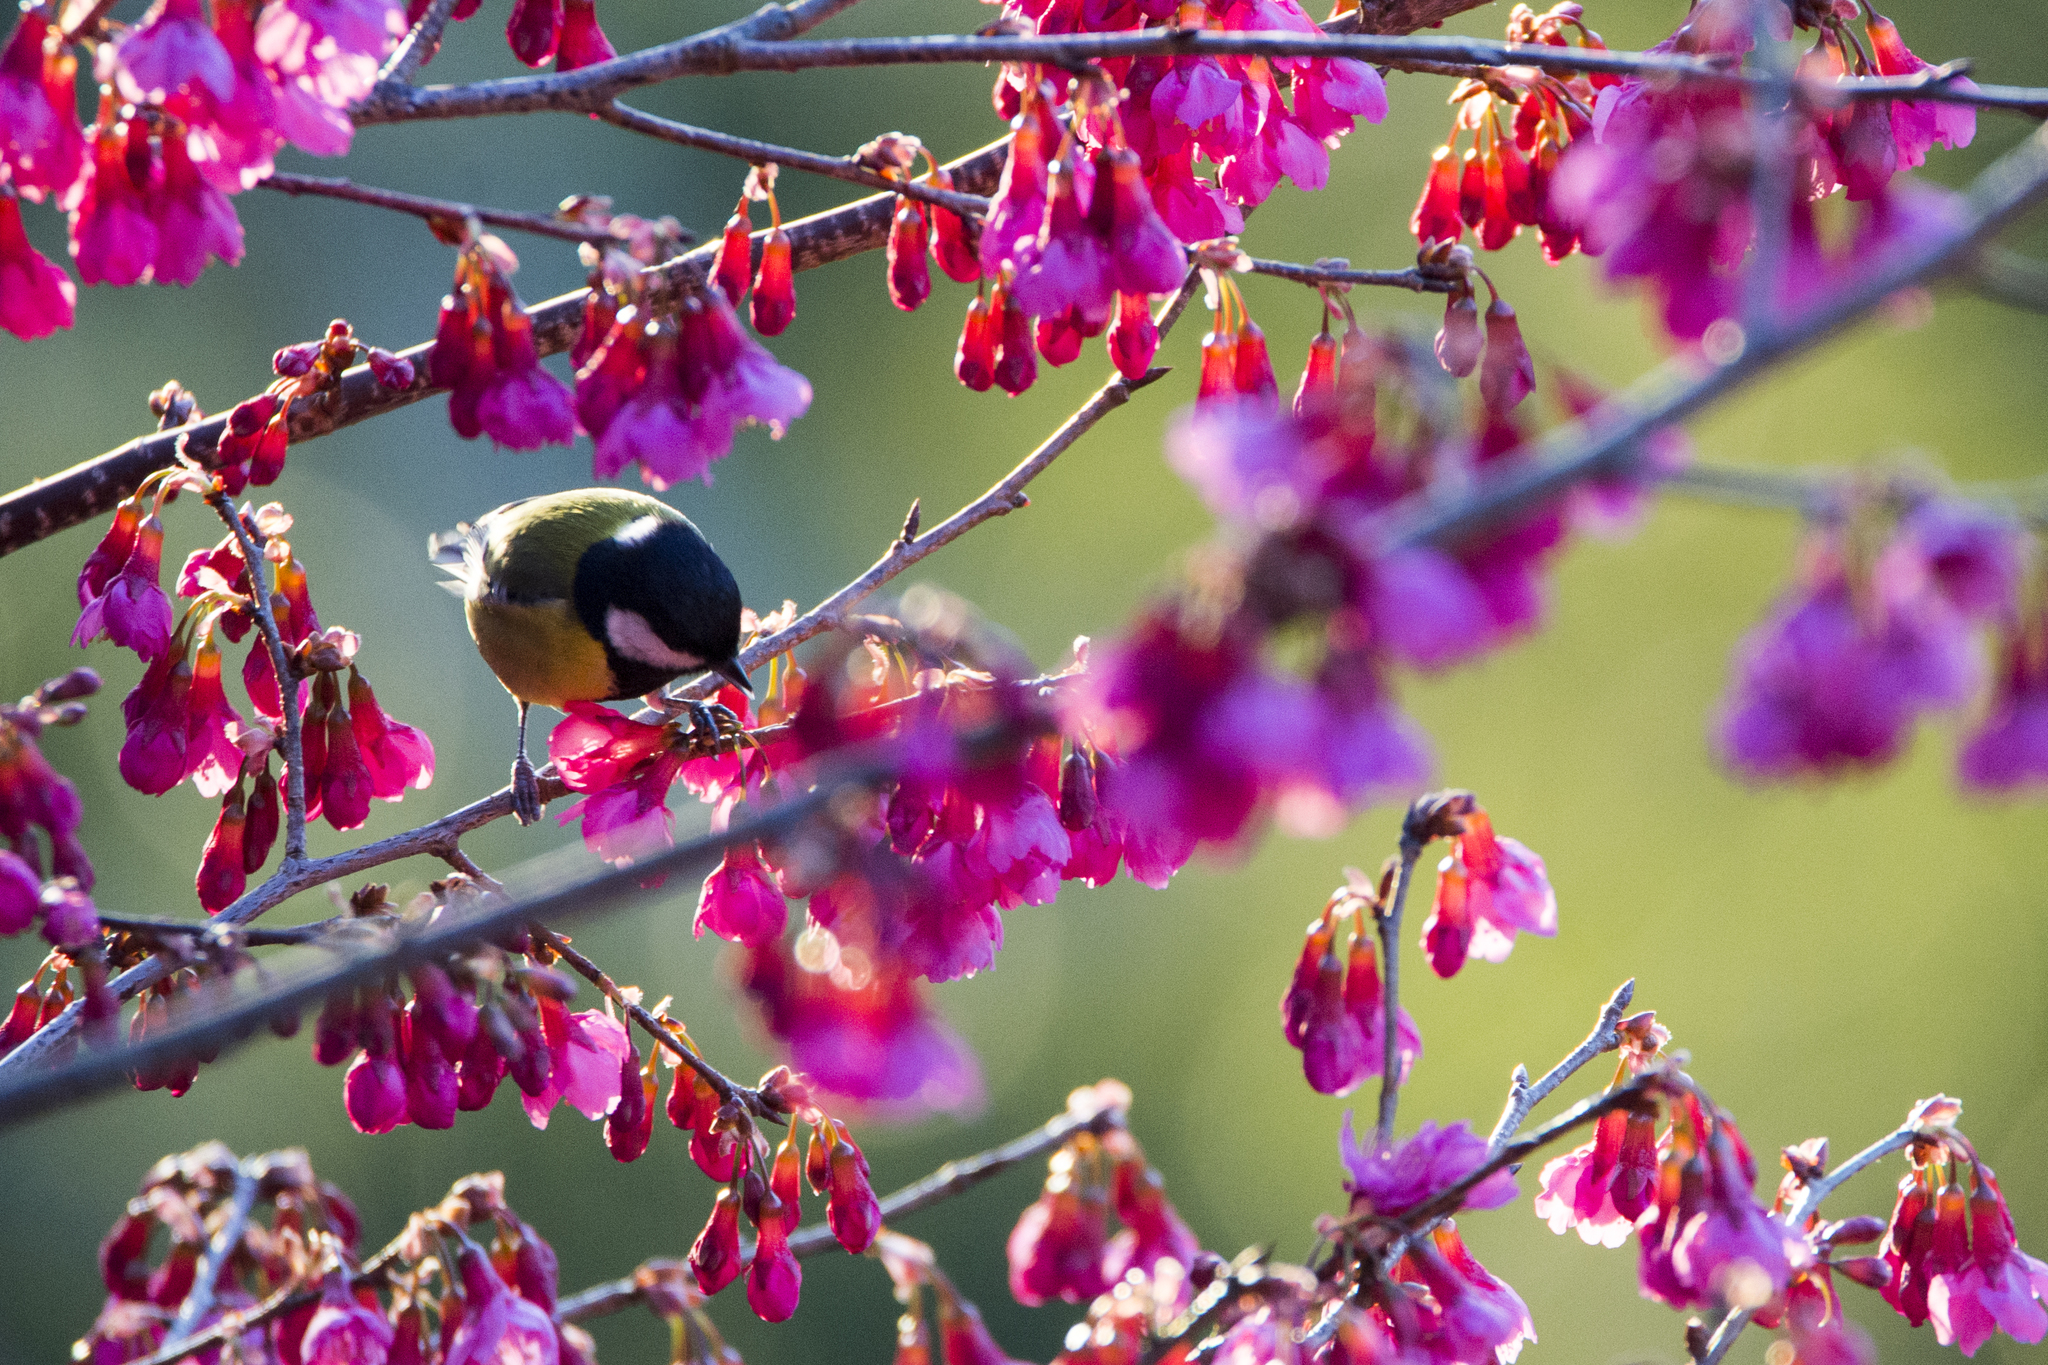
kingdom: Animalia
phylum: Chordata
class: Aves
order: Passeriformes
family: Paridae
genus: Parus
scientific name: Parus monticolus
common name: Green-backed tit
